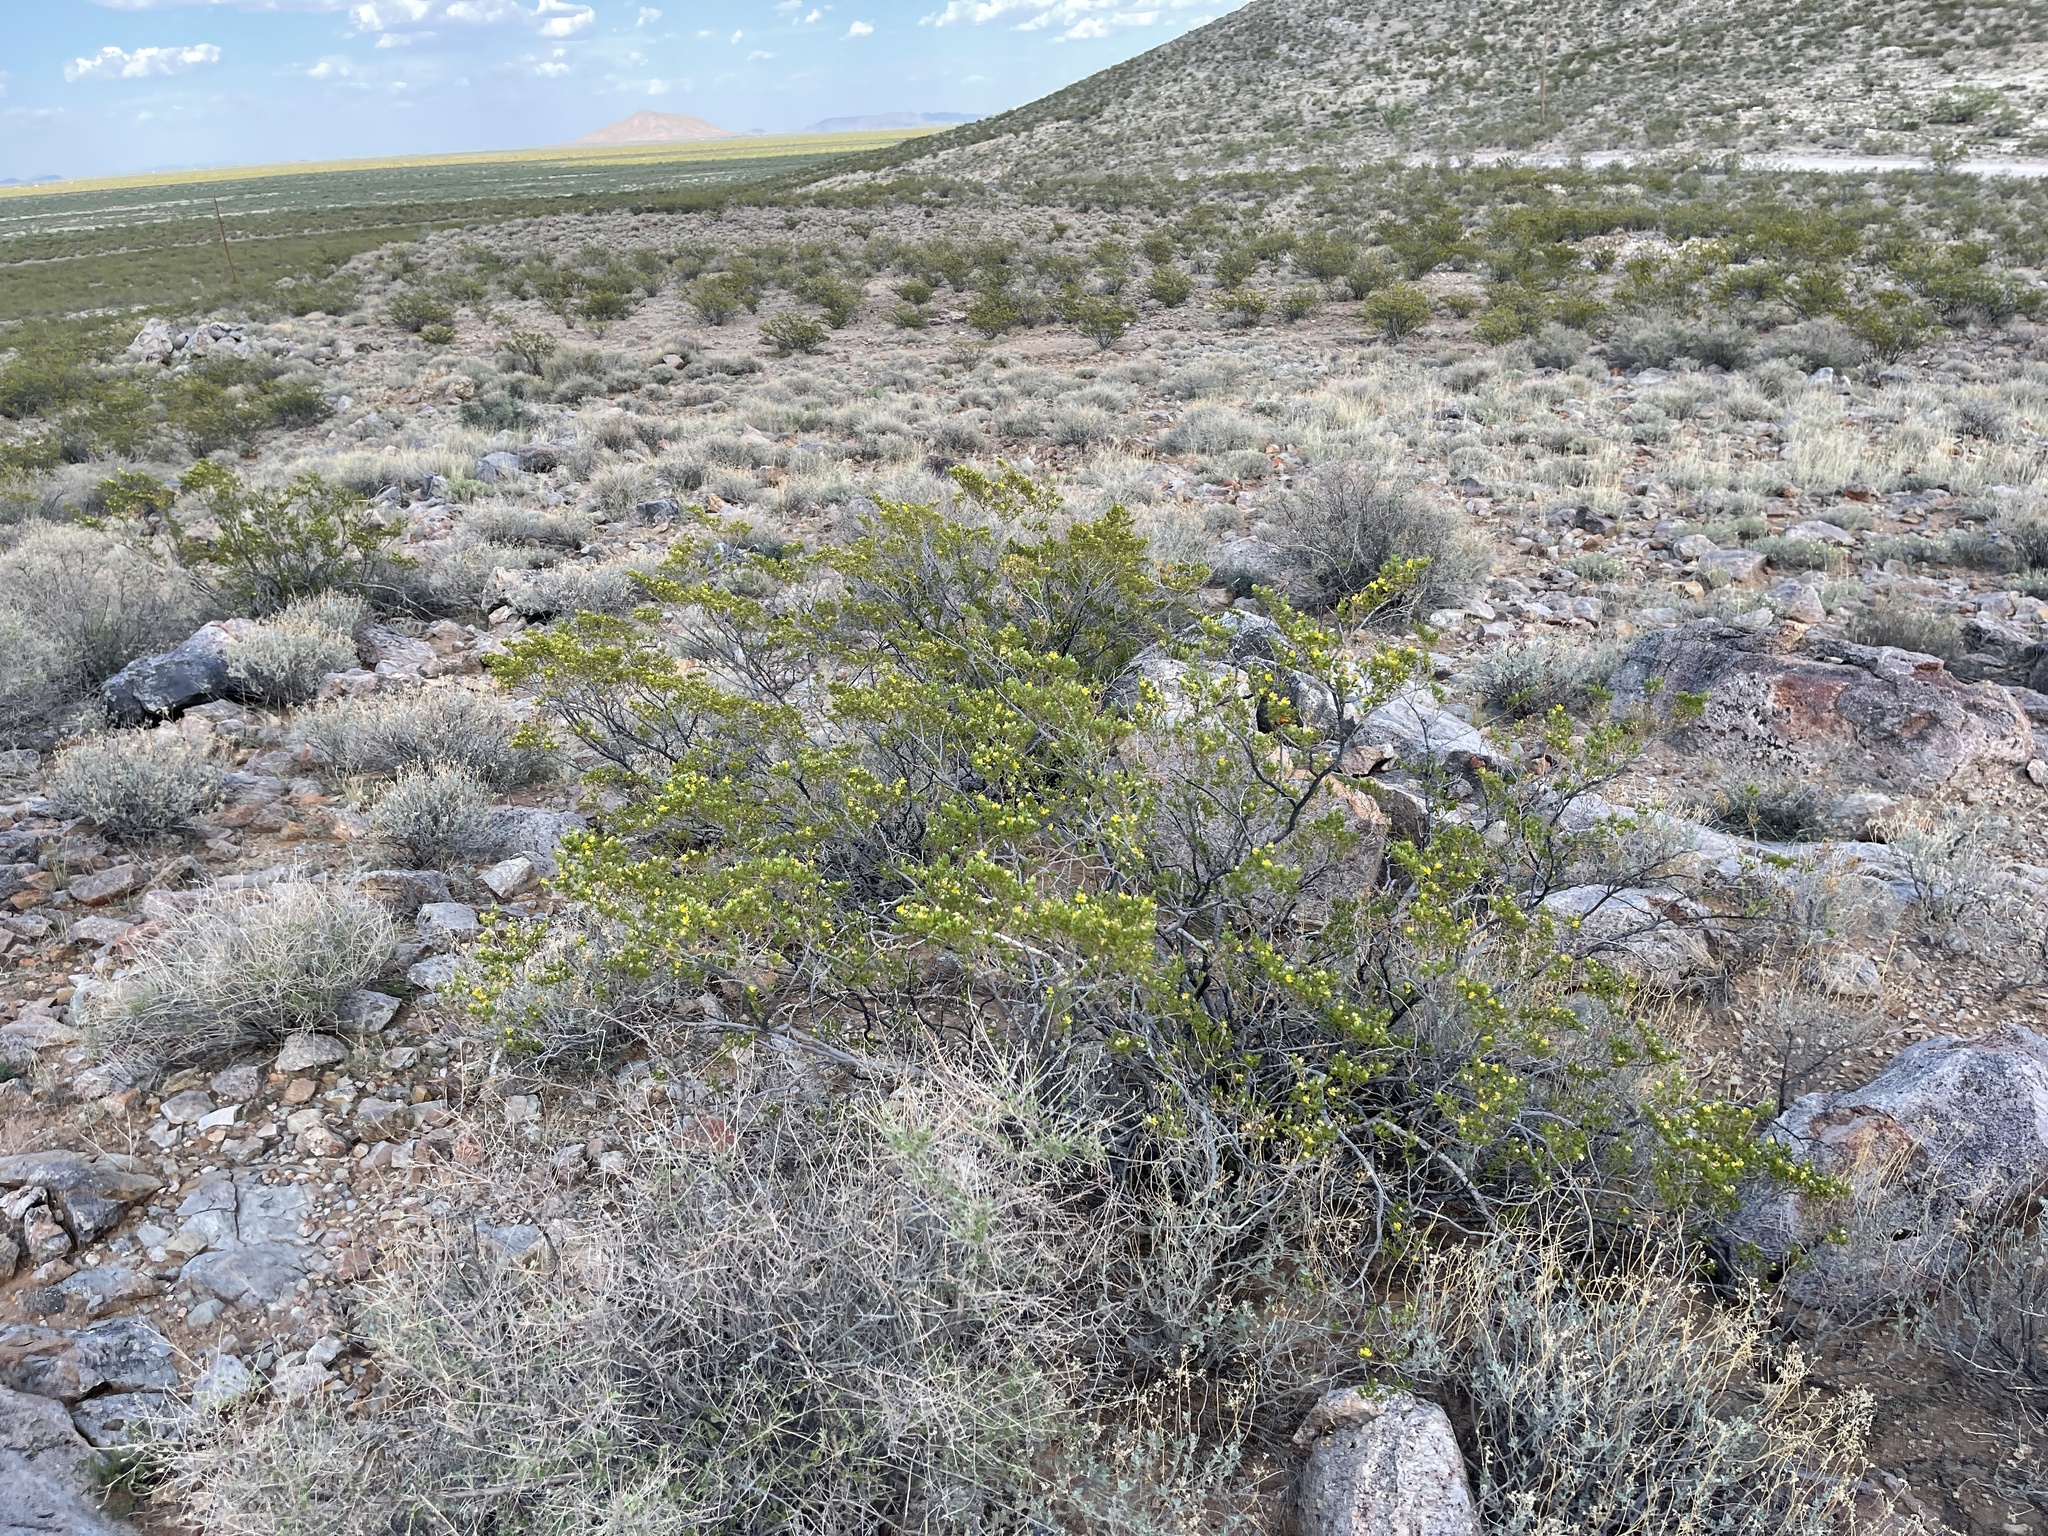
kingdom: Plantae
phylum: Tracheophyta
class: Magnoliopsida
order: Zygophyllales
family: Zygophyllaceae
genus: Larrea
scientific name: Larrea tridentata
